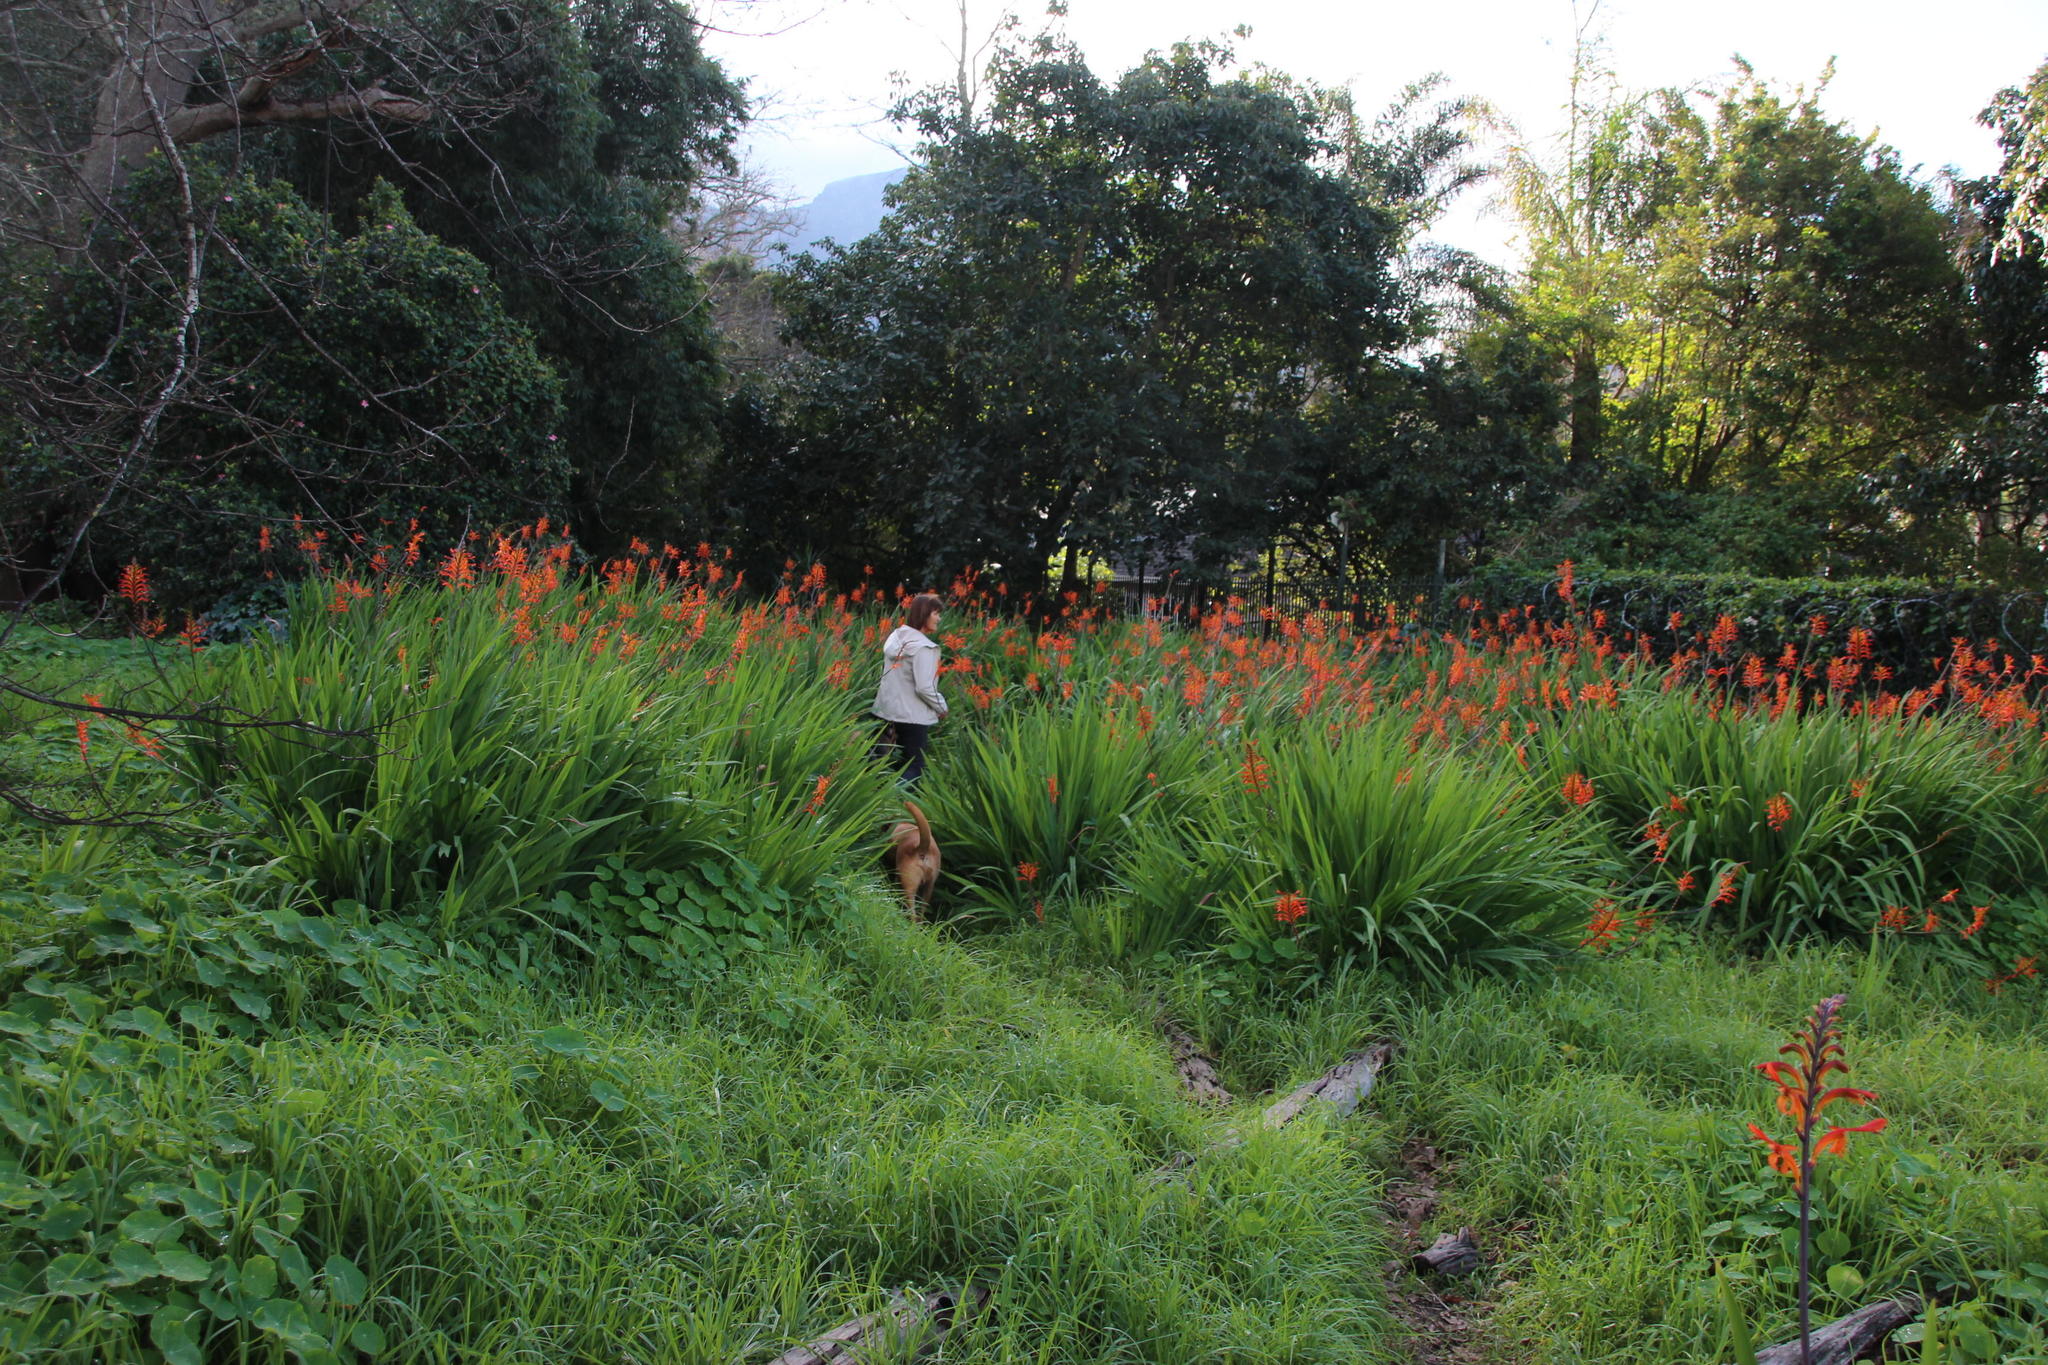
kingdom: Plantae
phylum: Tracheophyta
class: Liliopsida
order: Asparagales
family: Iridaceae
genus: Chasmanthe
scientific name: Chasmanthe floribunda
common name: African cornflag
